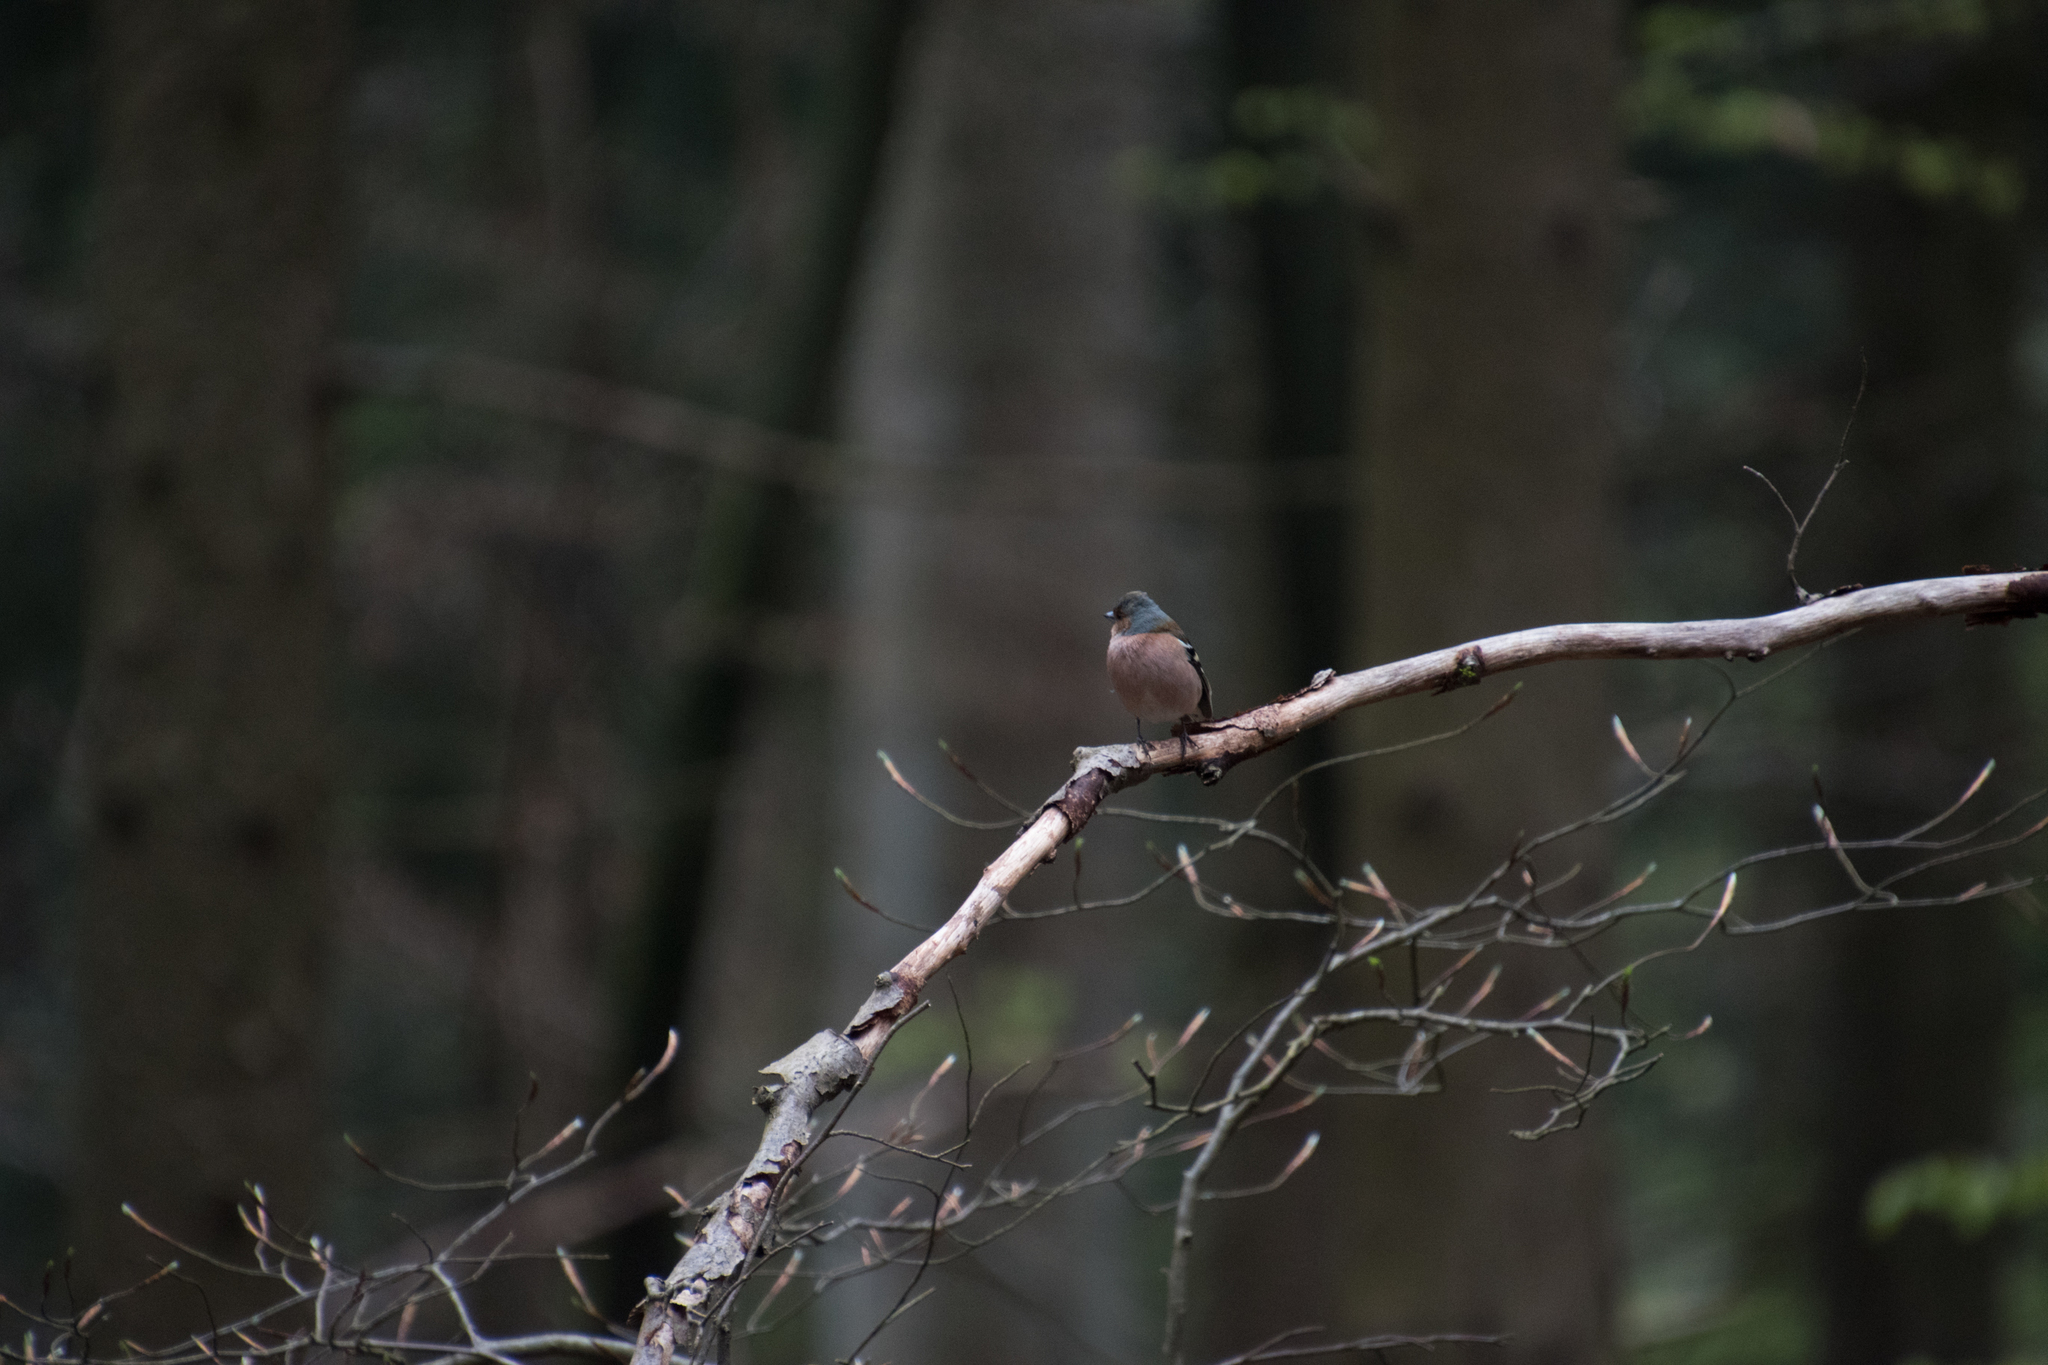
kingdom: Animalia
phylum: Chordata
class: Aves
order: Passeriformes
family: Fringillidae
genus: Fringilla
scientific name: Fringilla coelebs
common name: Common chaffinch
